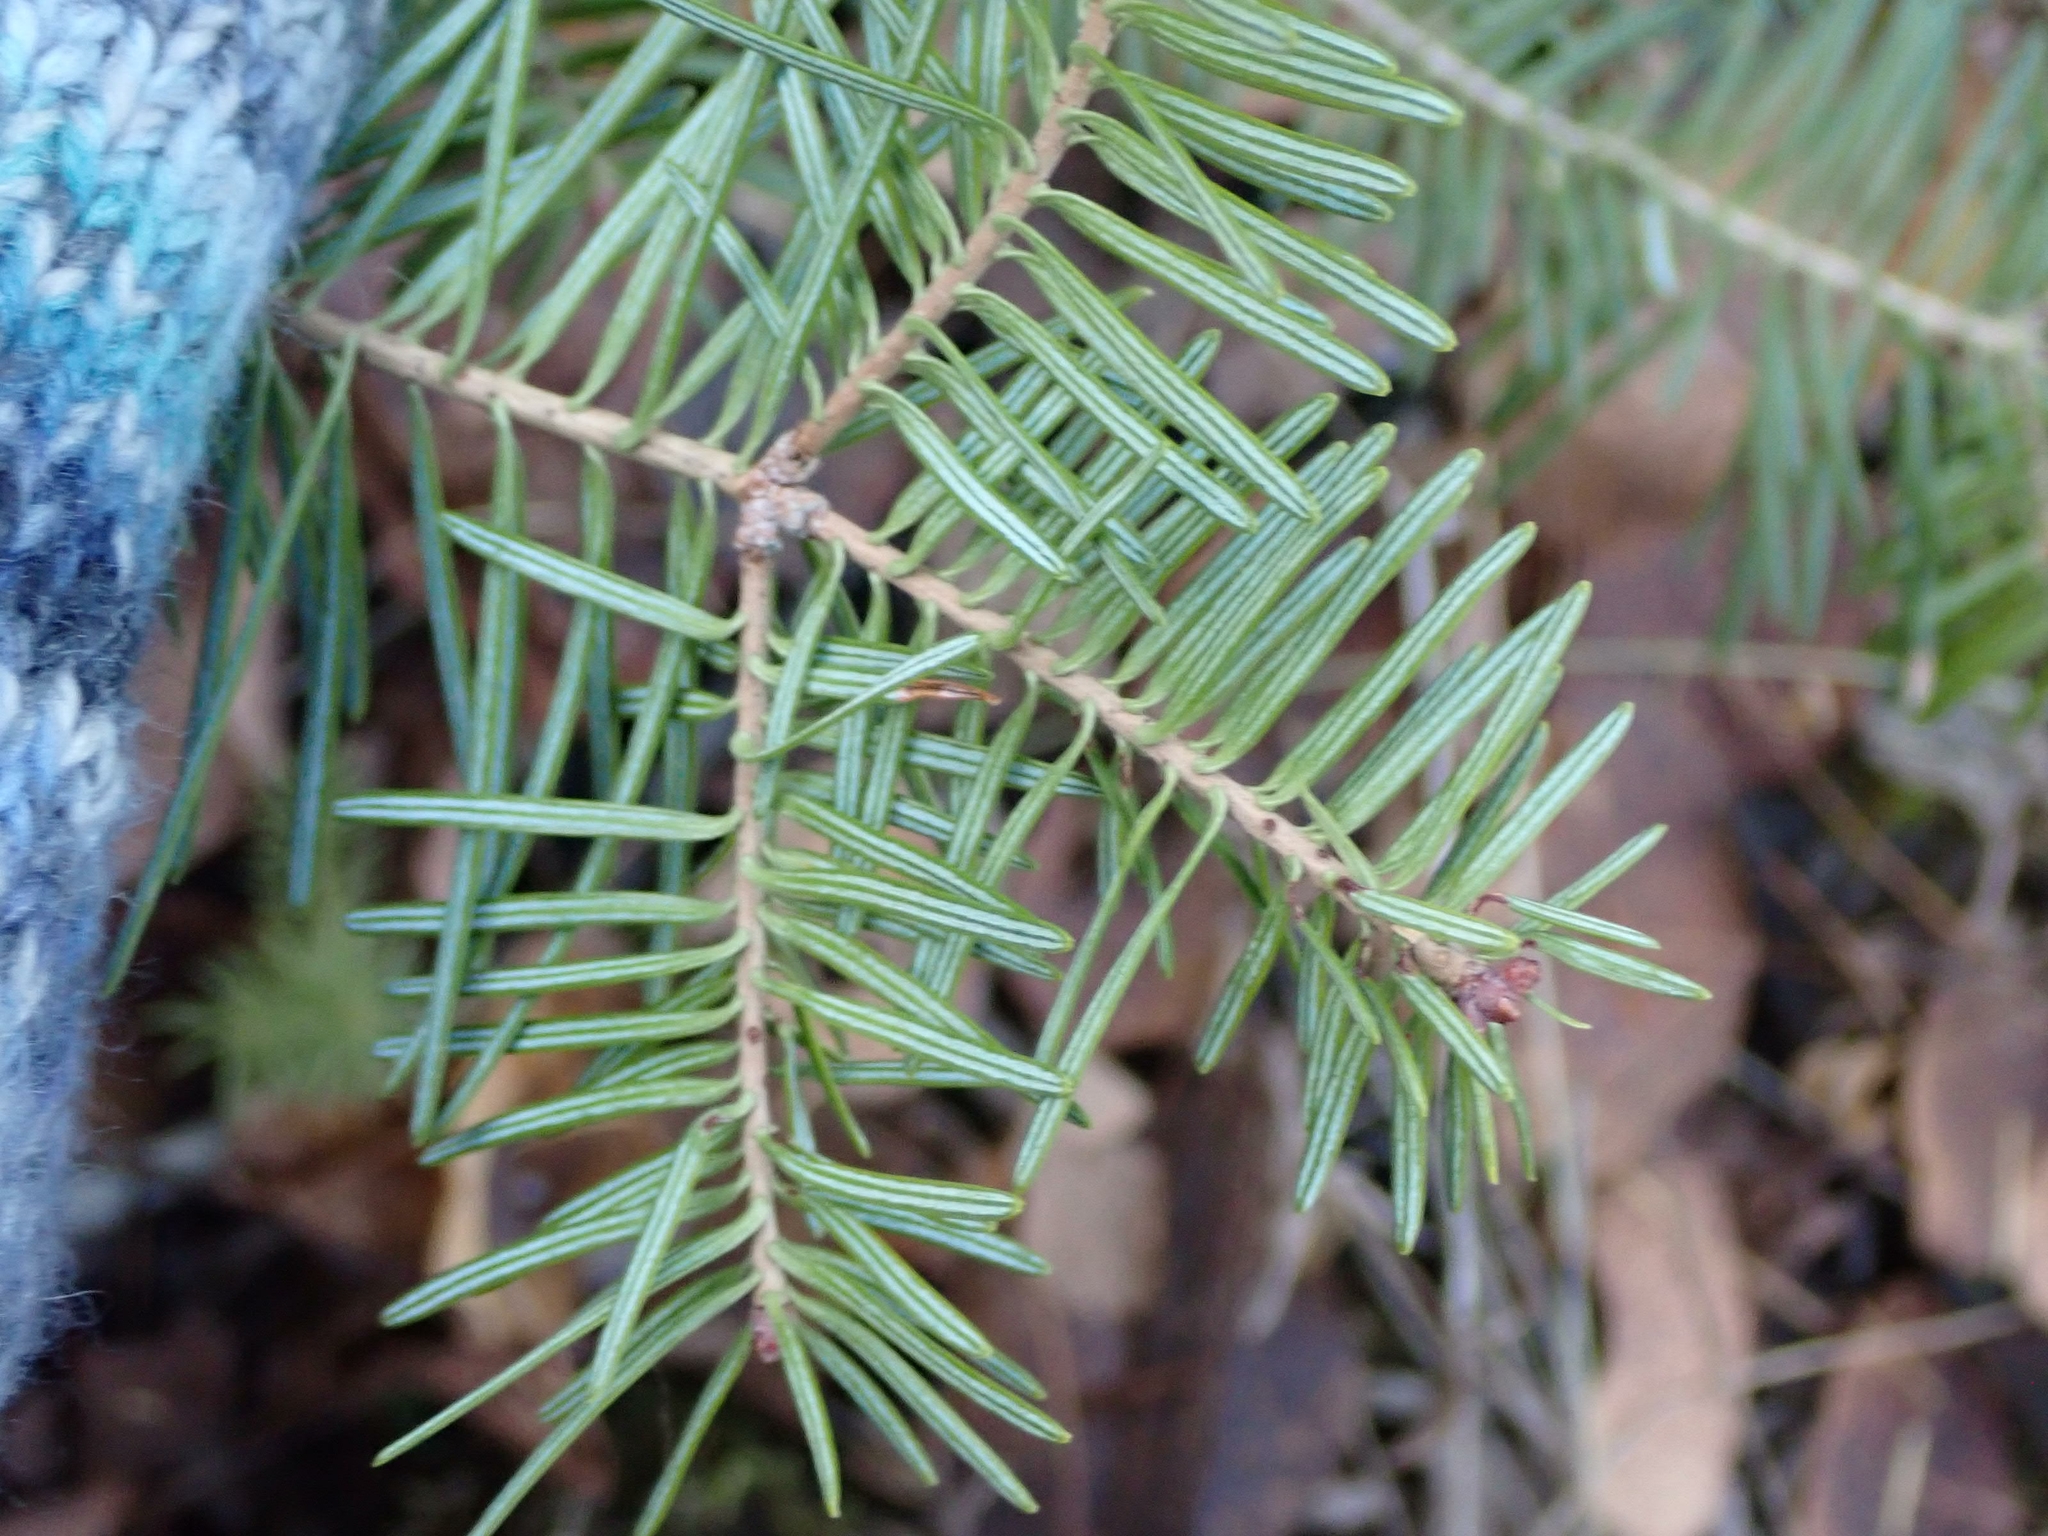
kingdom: Plantae
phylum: Tracheophyta
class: Pinopsida
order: Pinales
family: Pinaceae
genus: Abies
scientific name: Abies balsamea
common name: Balsam fir
